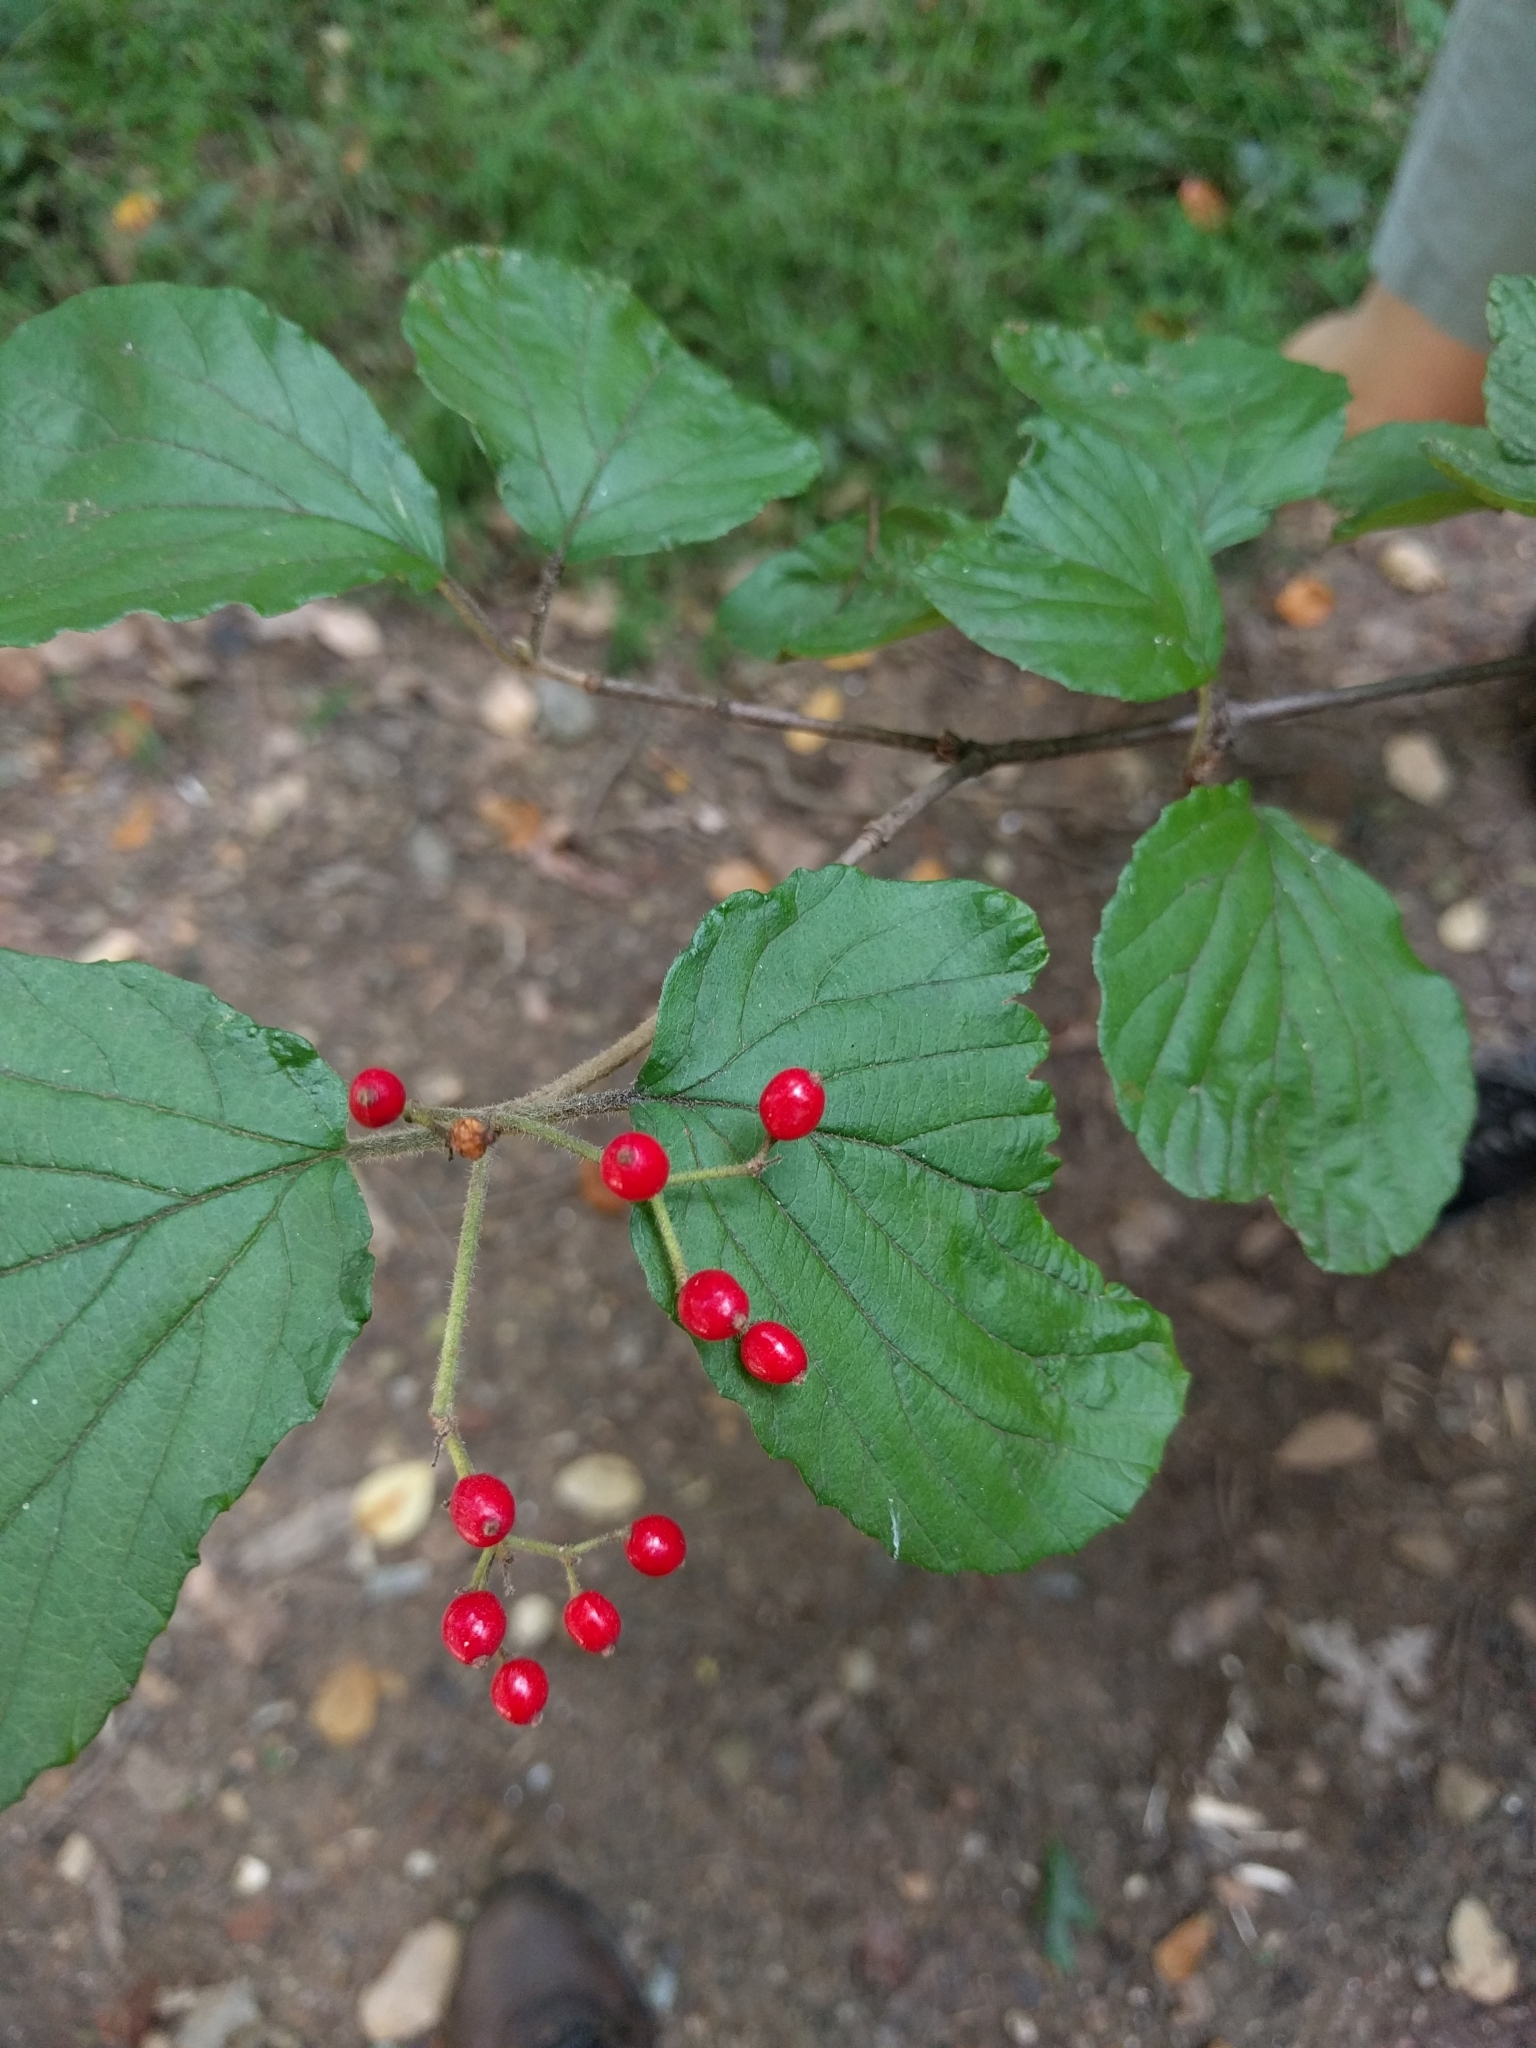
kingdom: Plantae
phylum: Tracheophyta
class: Magnoliopsida
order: Dipsacales
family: Viburnaceae
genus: Viburnum
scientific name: Viburnum dilatatum
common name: Linden arrowwood
